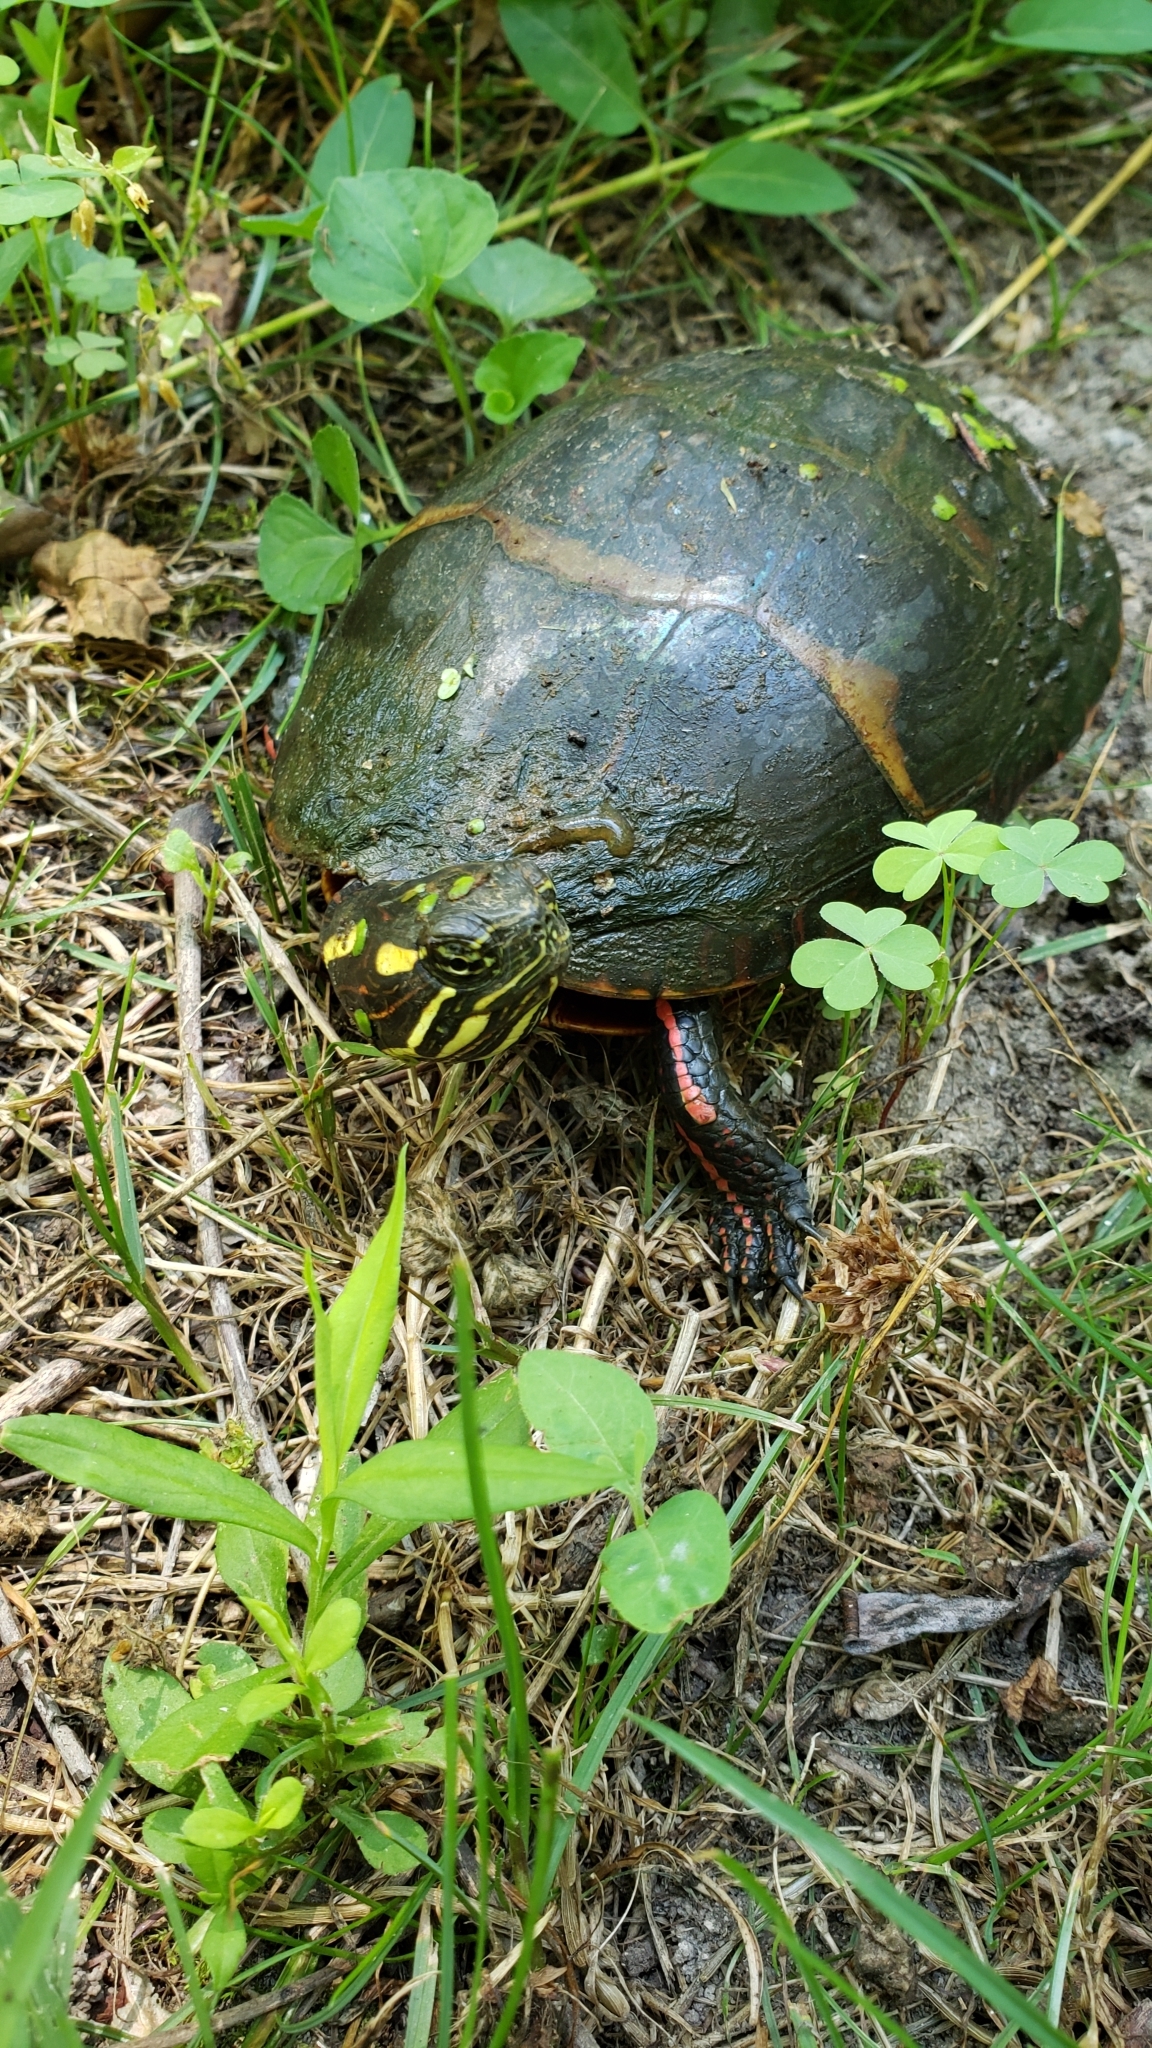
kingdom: Animalia
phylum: Chordata
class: Testudines
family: Emydidae
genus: Chrysemys
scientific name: Chrysemys picta
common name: Painted turtle
